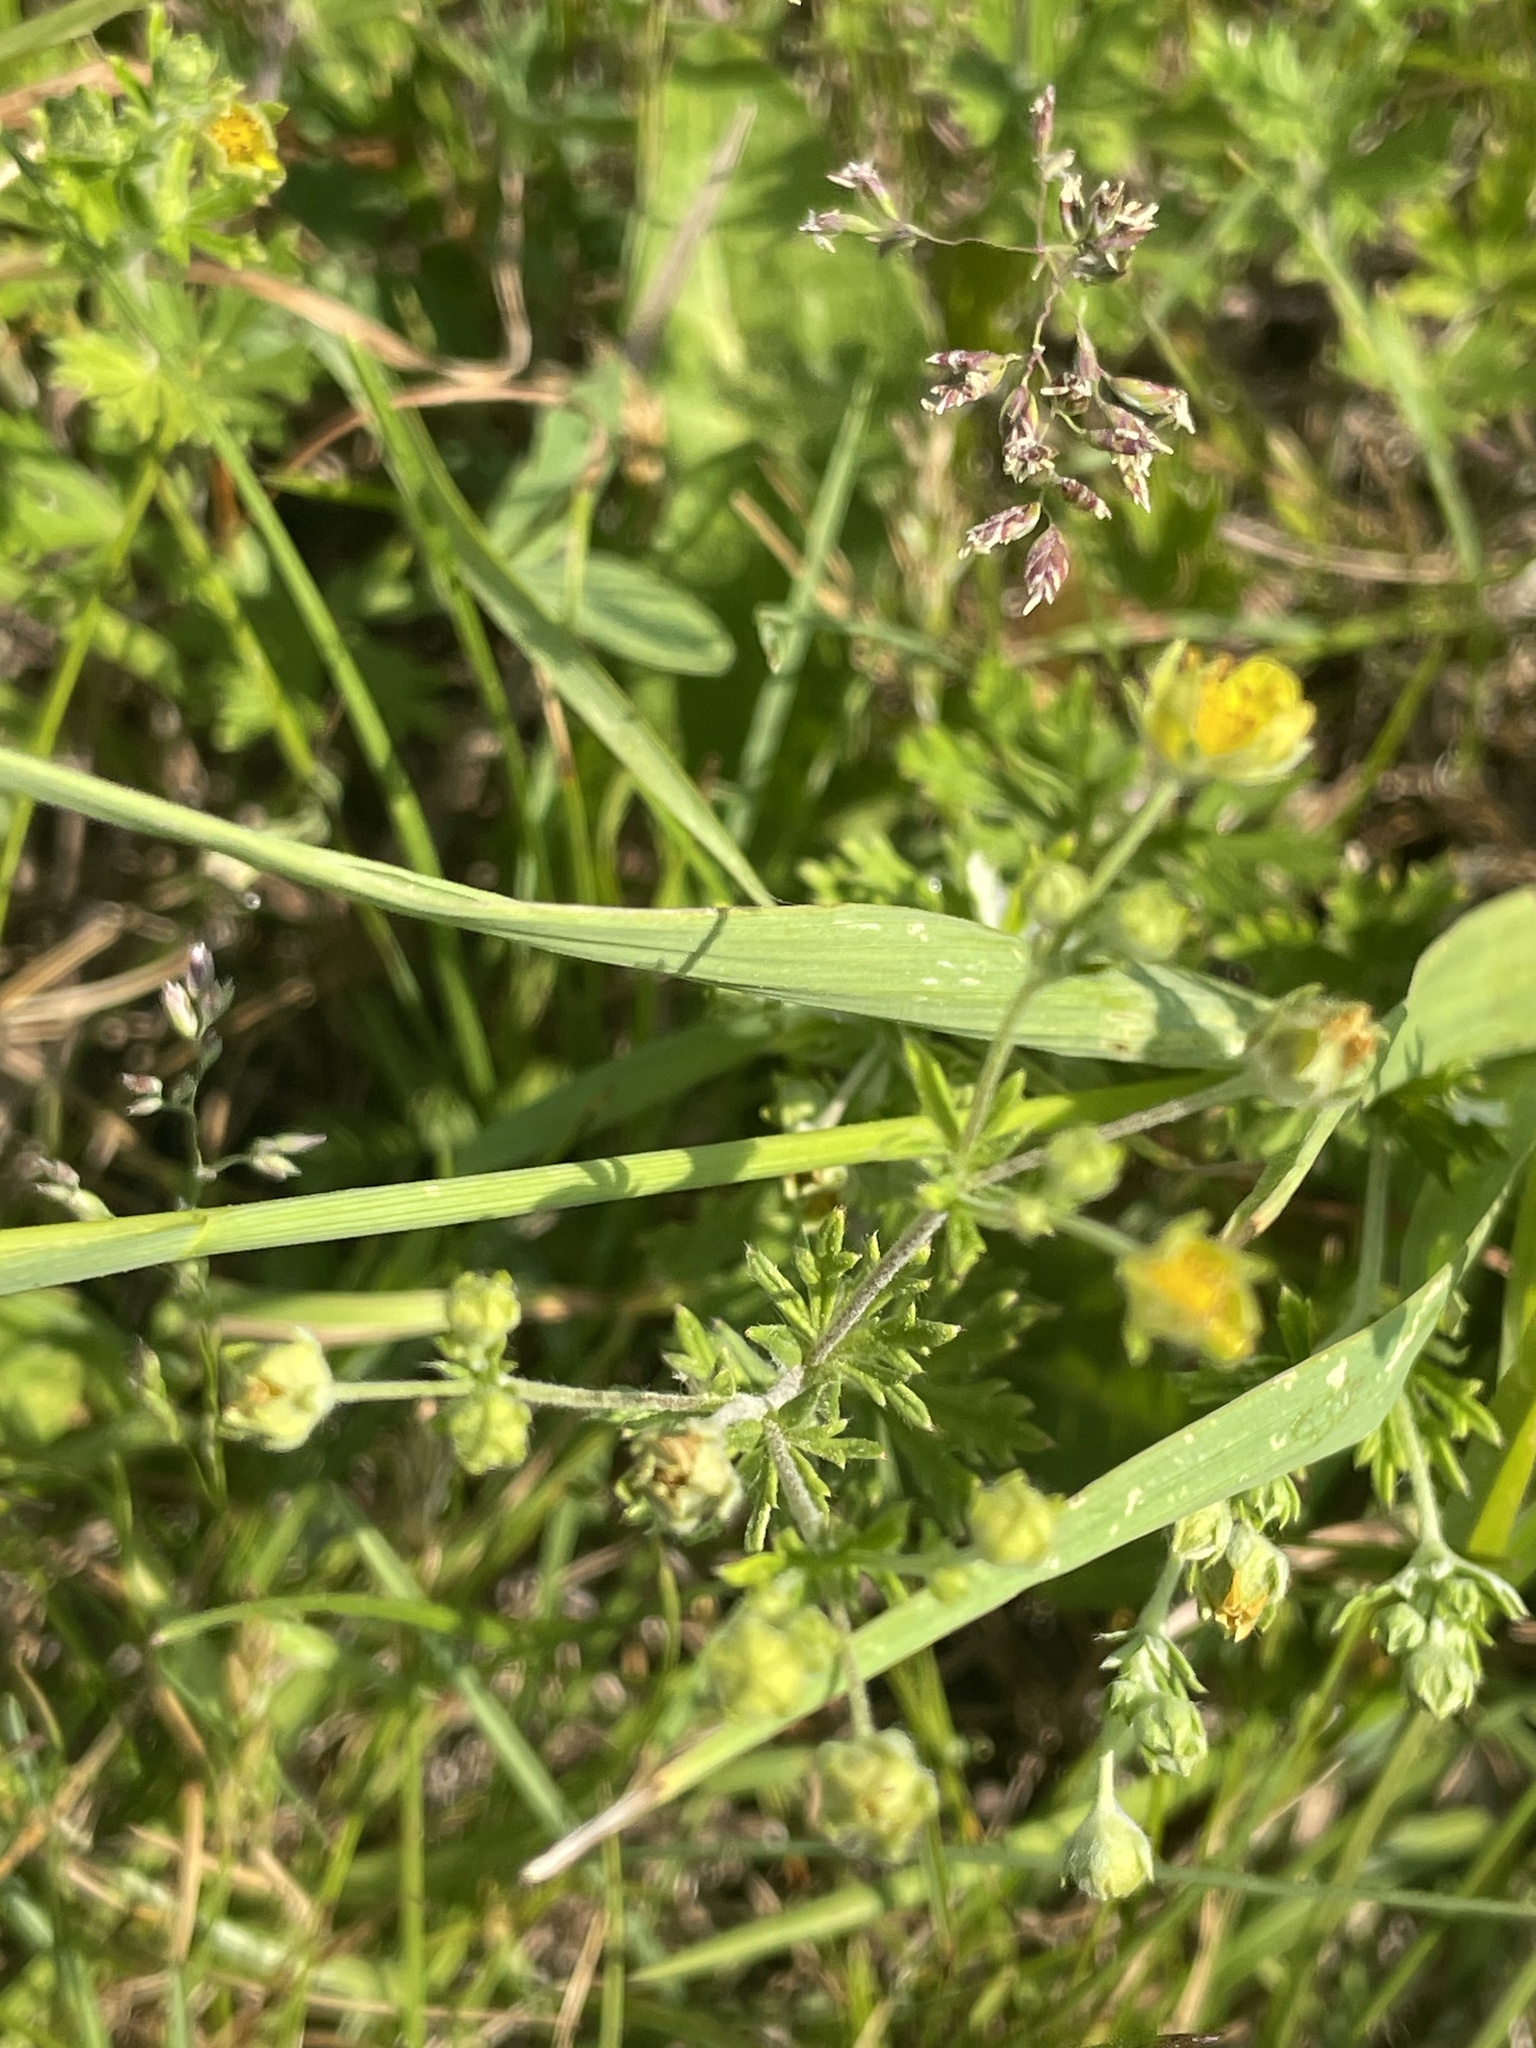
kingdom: Plantae
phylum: Tracheophyta
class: Magnoliopsida
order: Rosales
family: Rosaceae
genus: Potentilla
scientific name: Potentilla argentea
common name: Hoary cinquefoil
